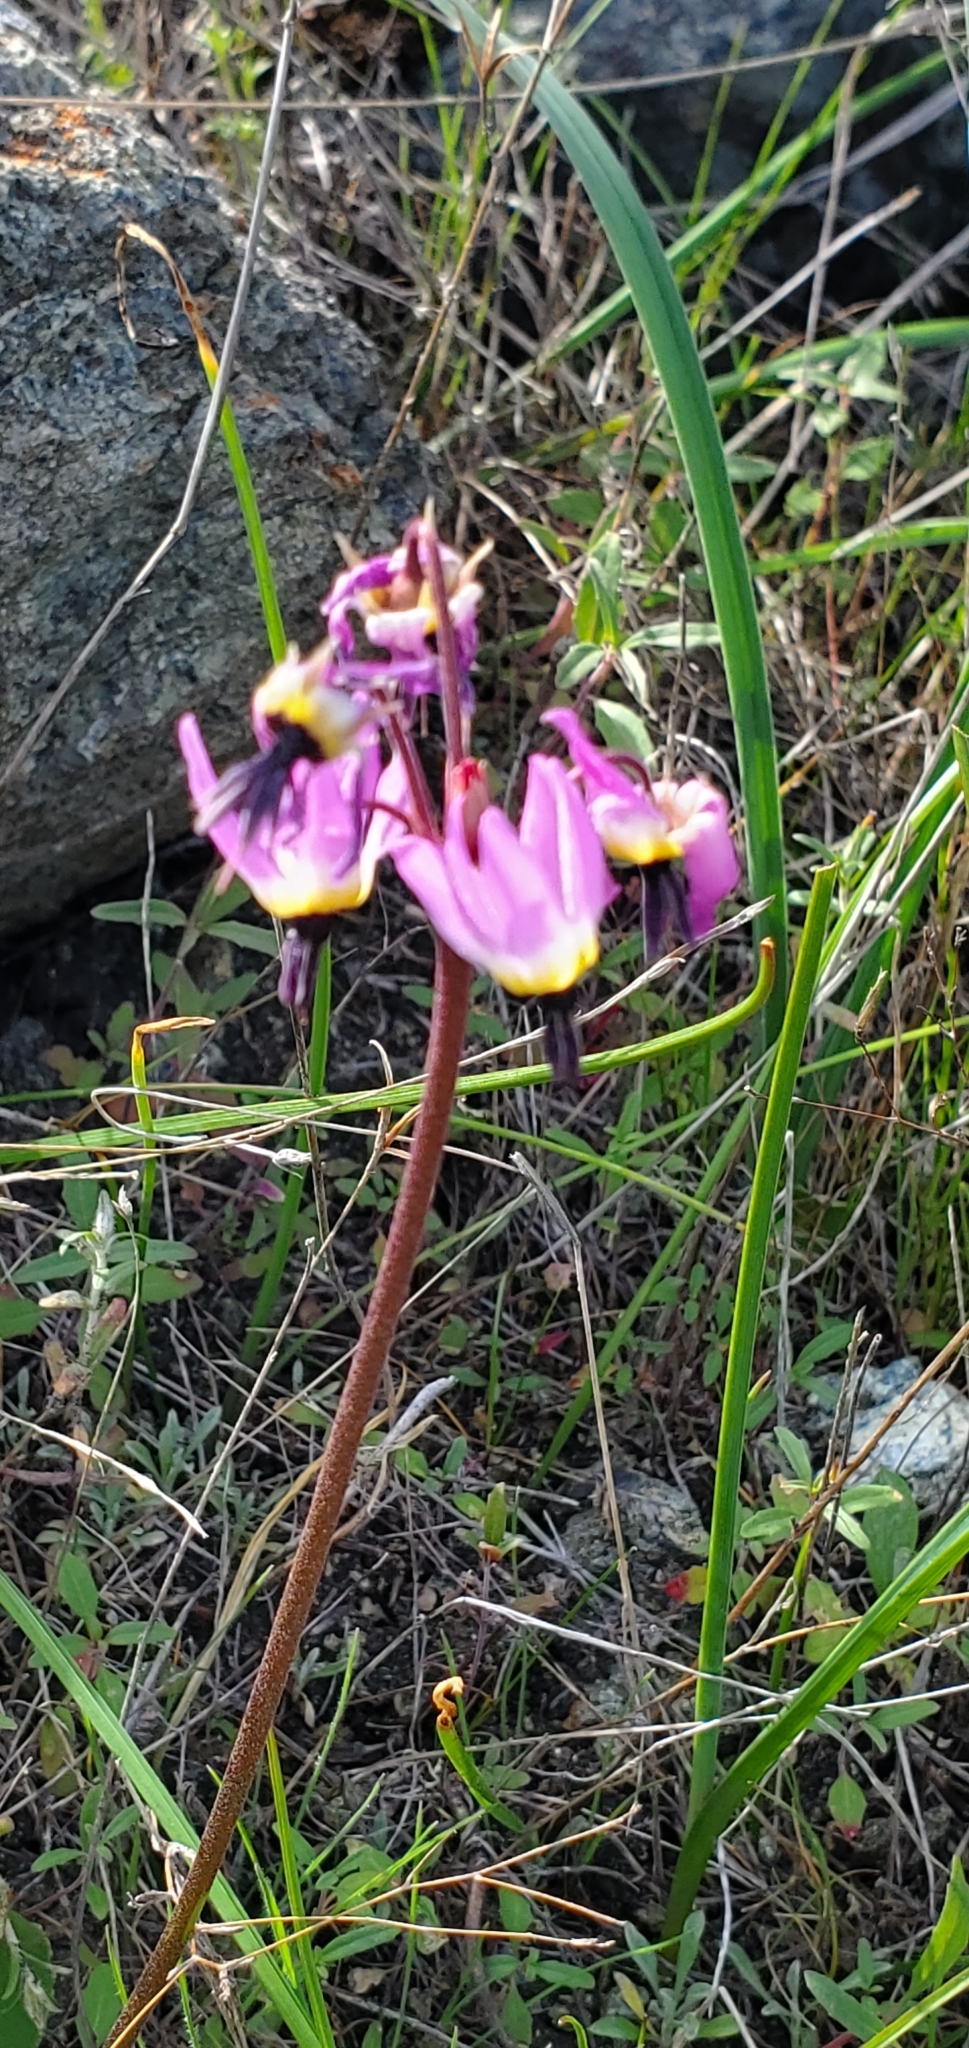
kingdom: Plantae
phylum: Tracheophyta
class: Magnoliopsida
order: Ericales
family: Primulaceae
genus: Dodecatheon
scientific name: Dodecatheon hendersonii
